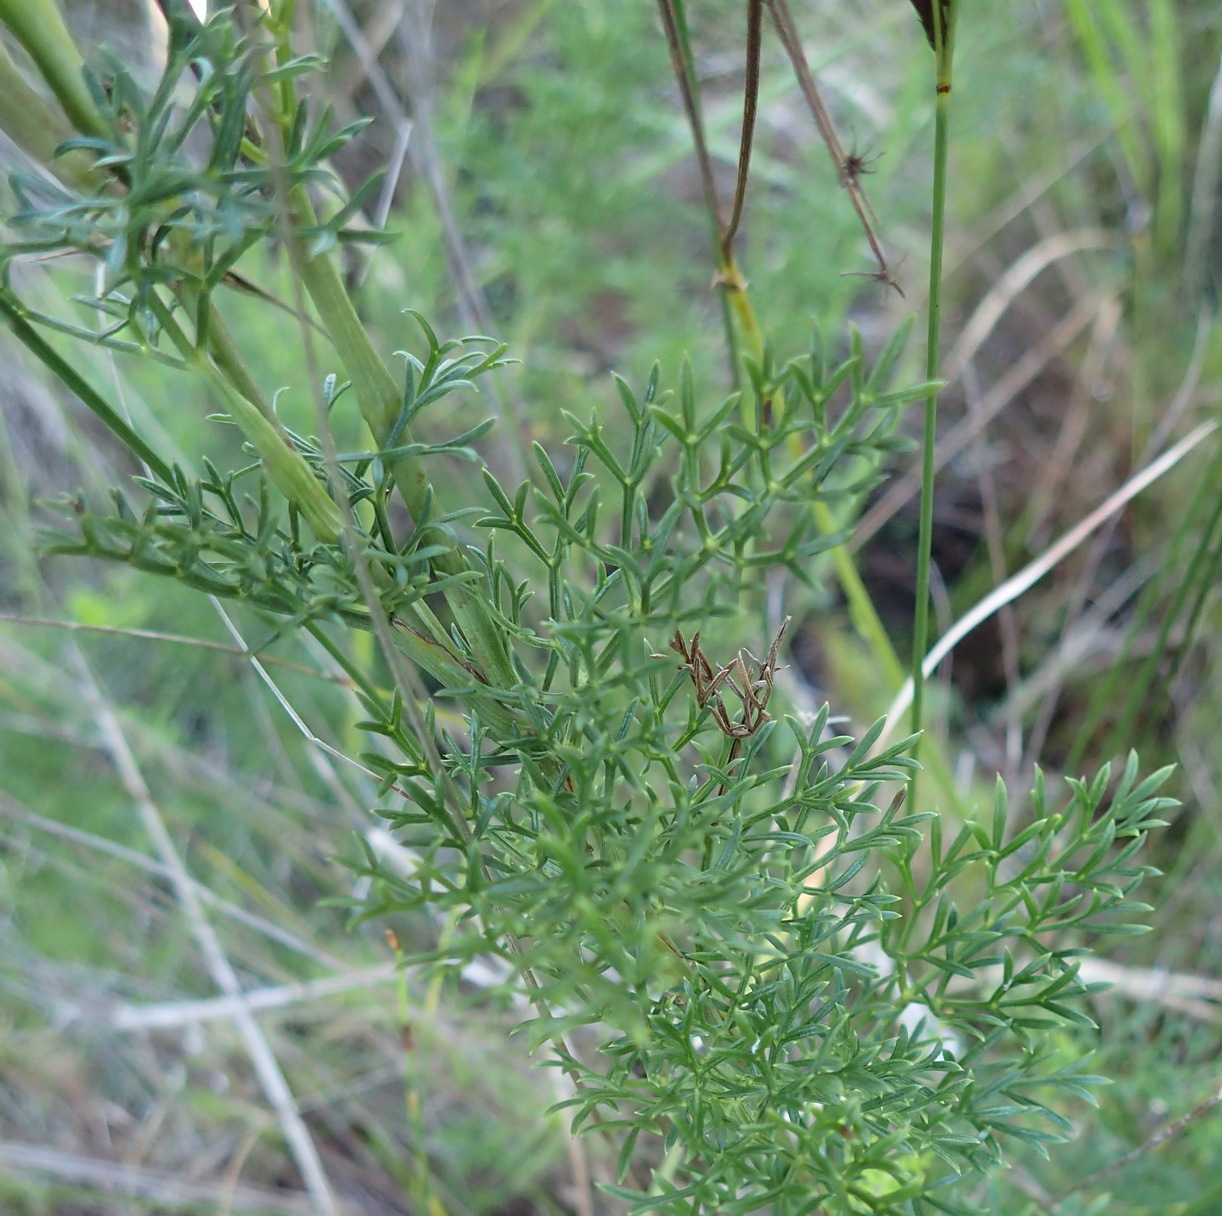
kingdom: Plantae
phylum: Tracheophyta
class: Magnoliopsida
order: Apiales
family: Apiaceae
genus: Notobubon
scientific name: Notobubon ferulaceum
